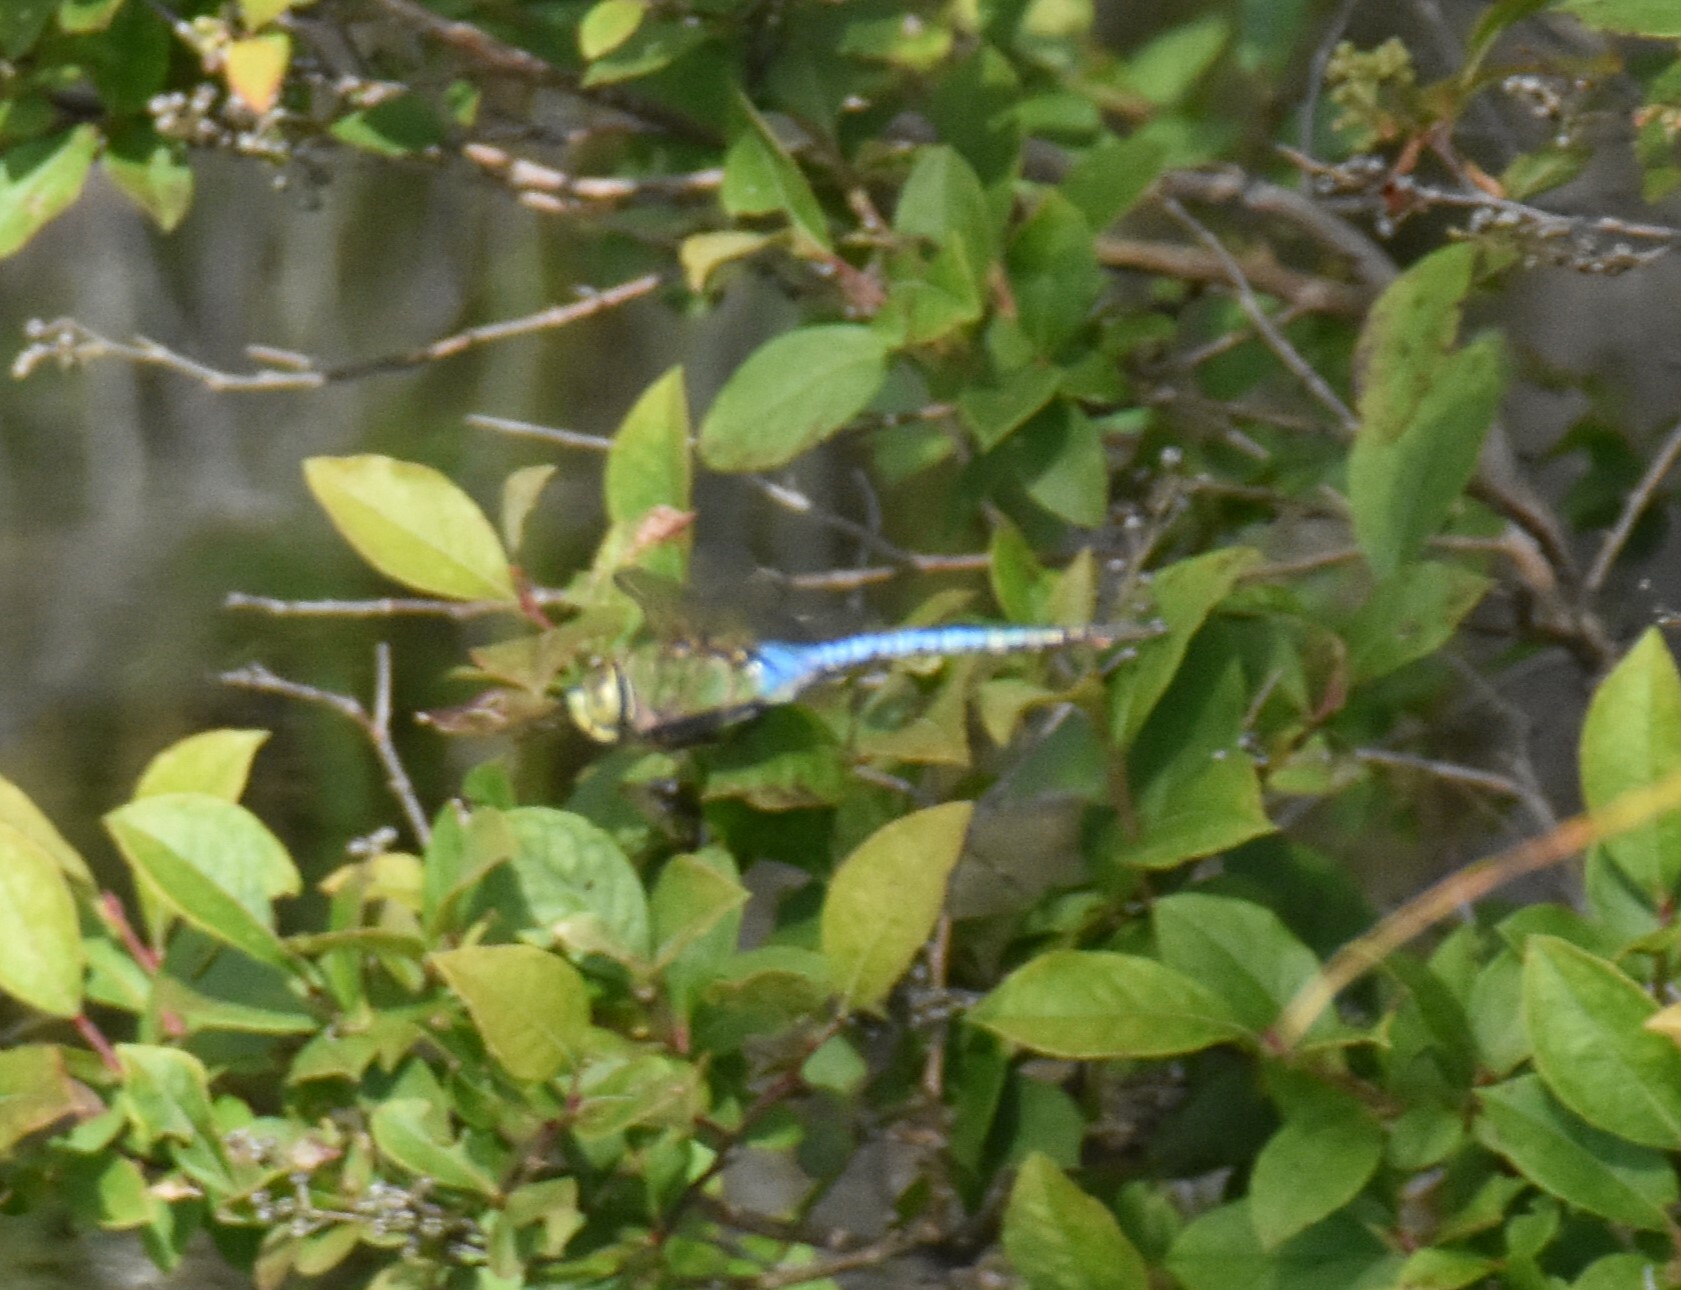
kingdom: Animalia
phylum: Arthropoda
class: Insecta
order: Odonata
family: Aeshnidae
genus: Anax
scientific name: Anax junius
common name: Common green darner
